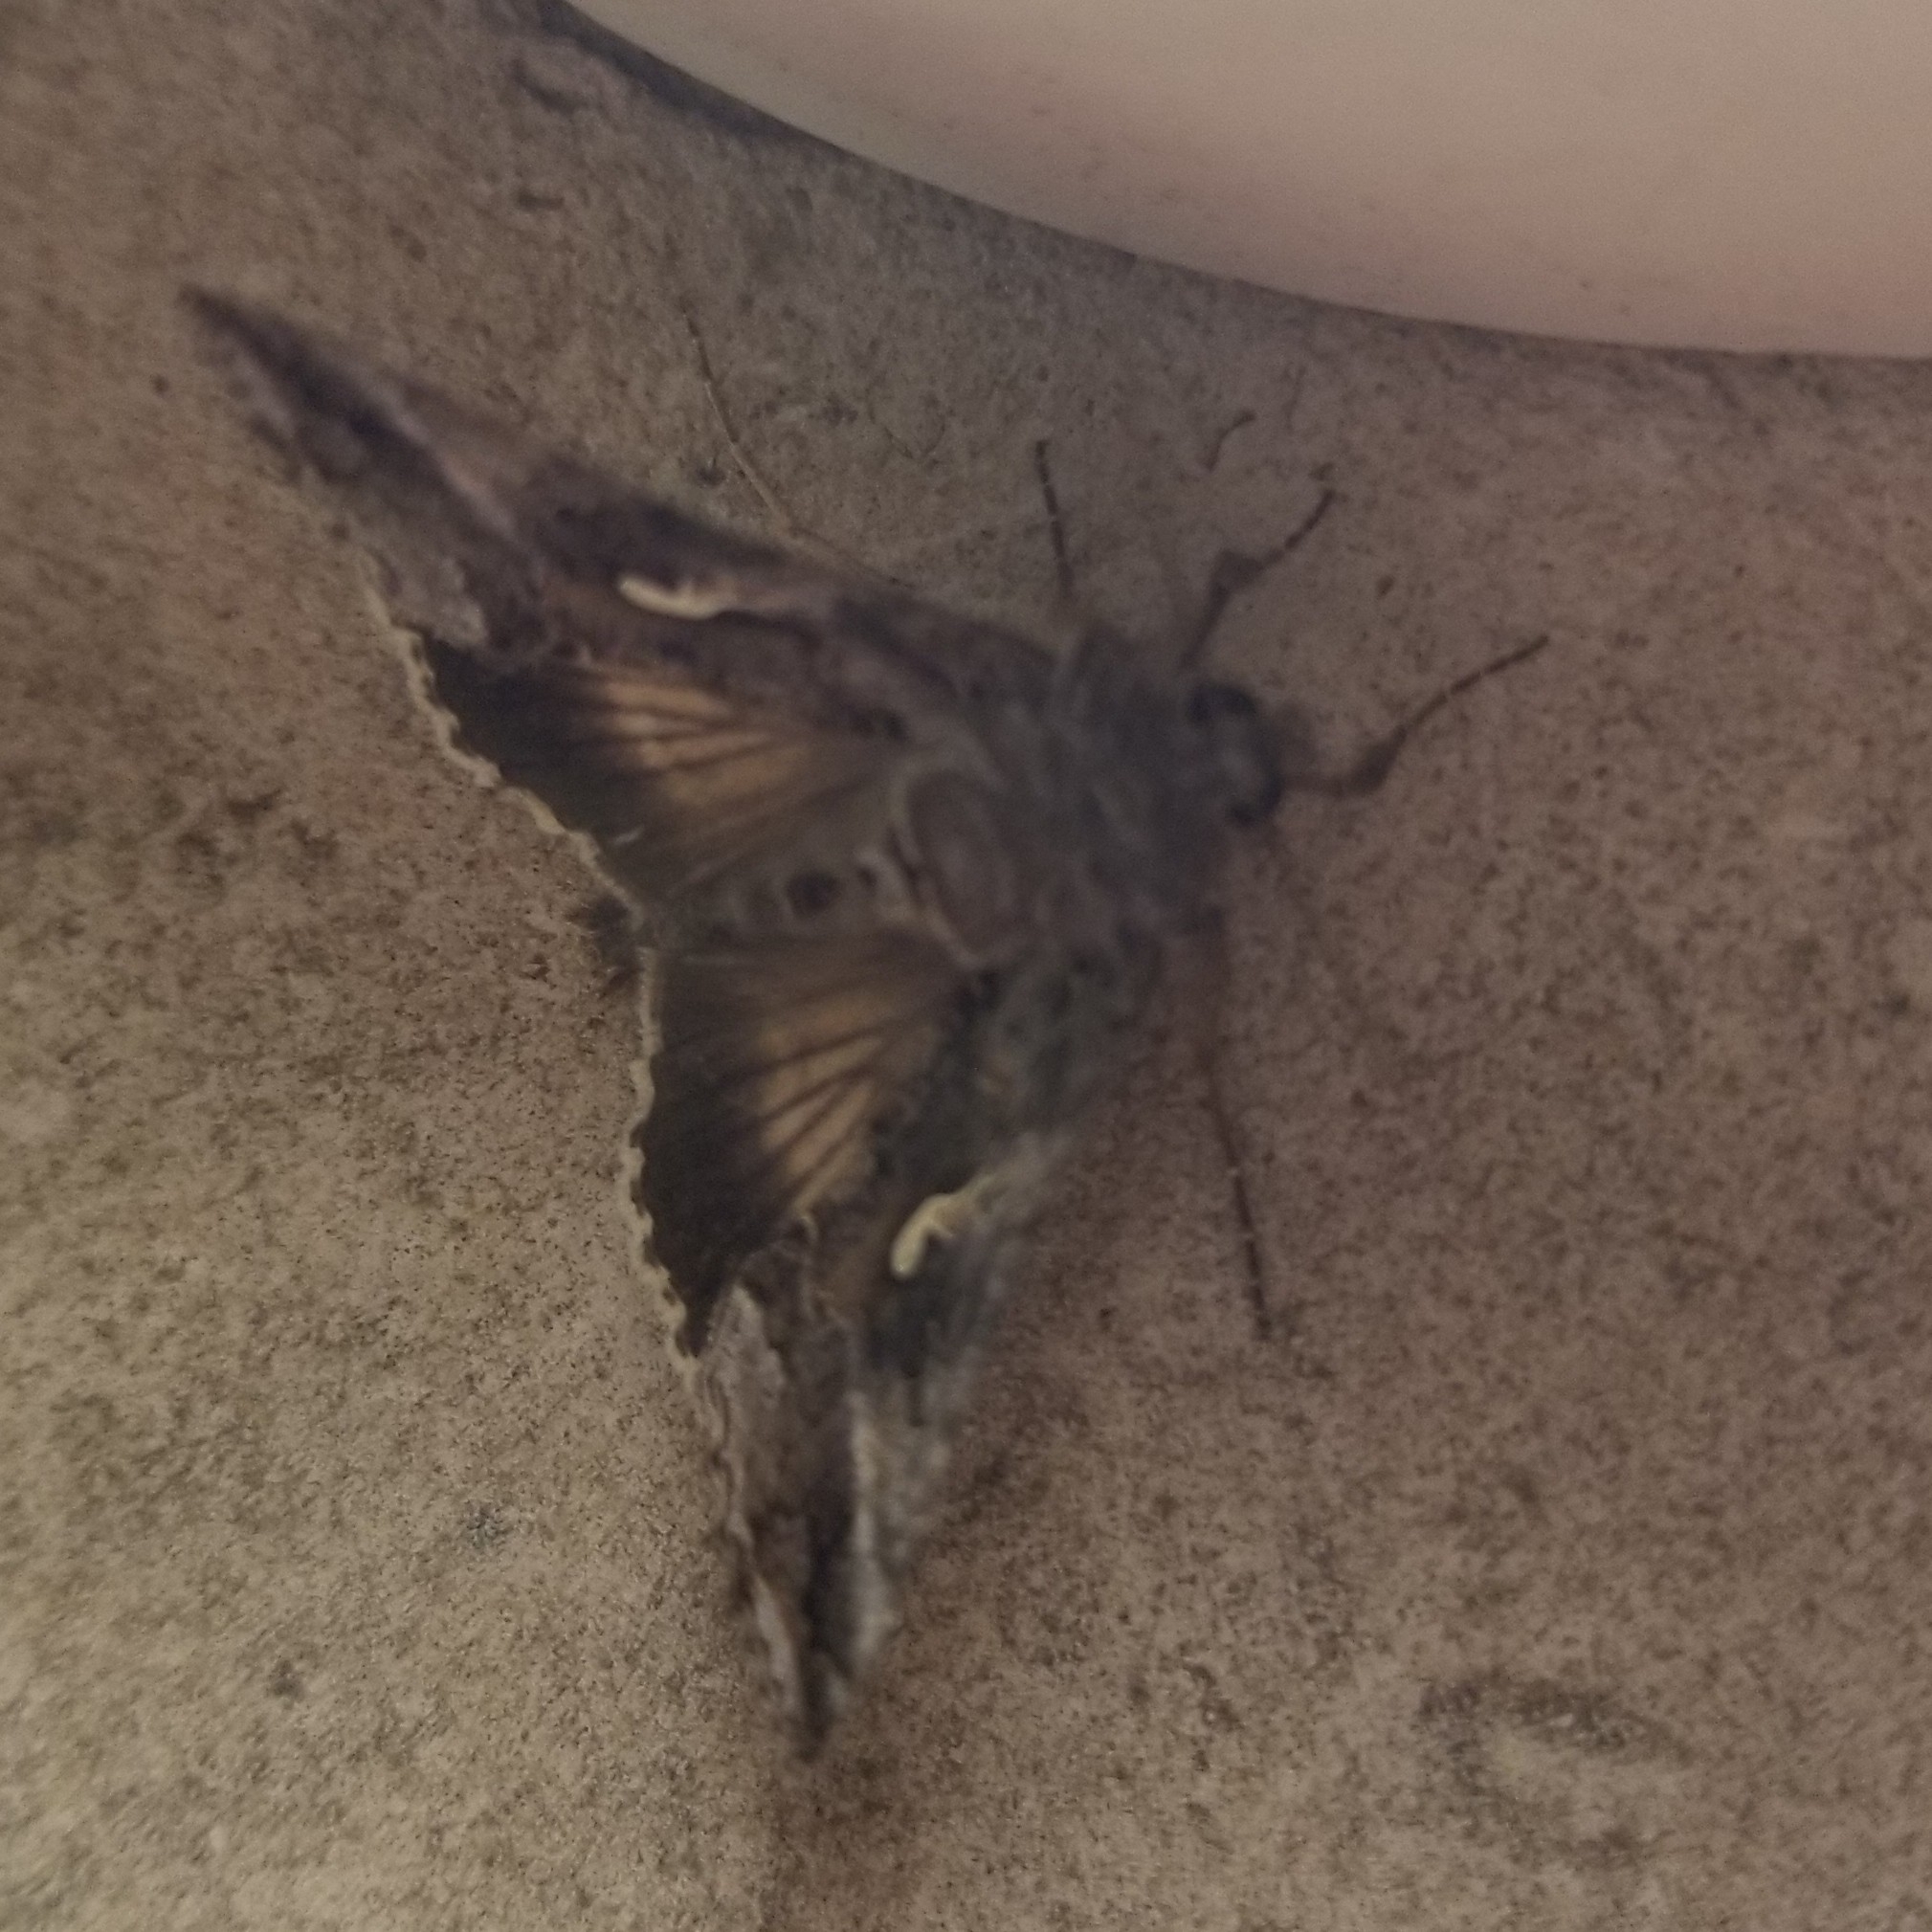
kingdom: Animalia
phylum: Arthropoda
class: Insecta
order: Lepidoptera
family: Noctuidae
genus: Autographa
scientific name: Autographa gamma
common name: Silver y
